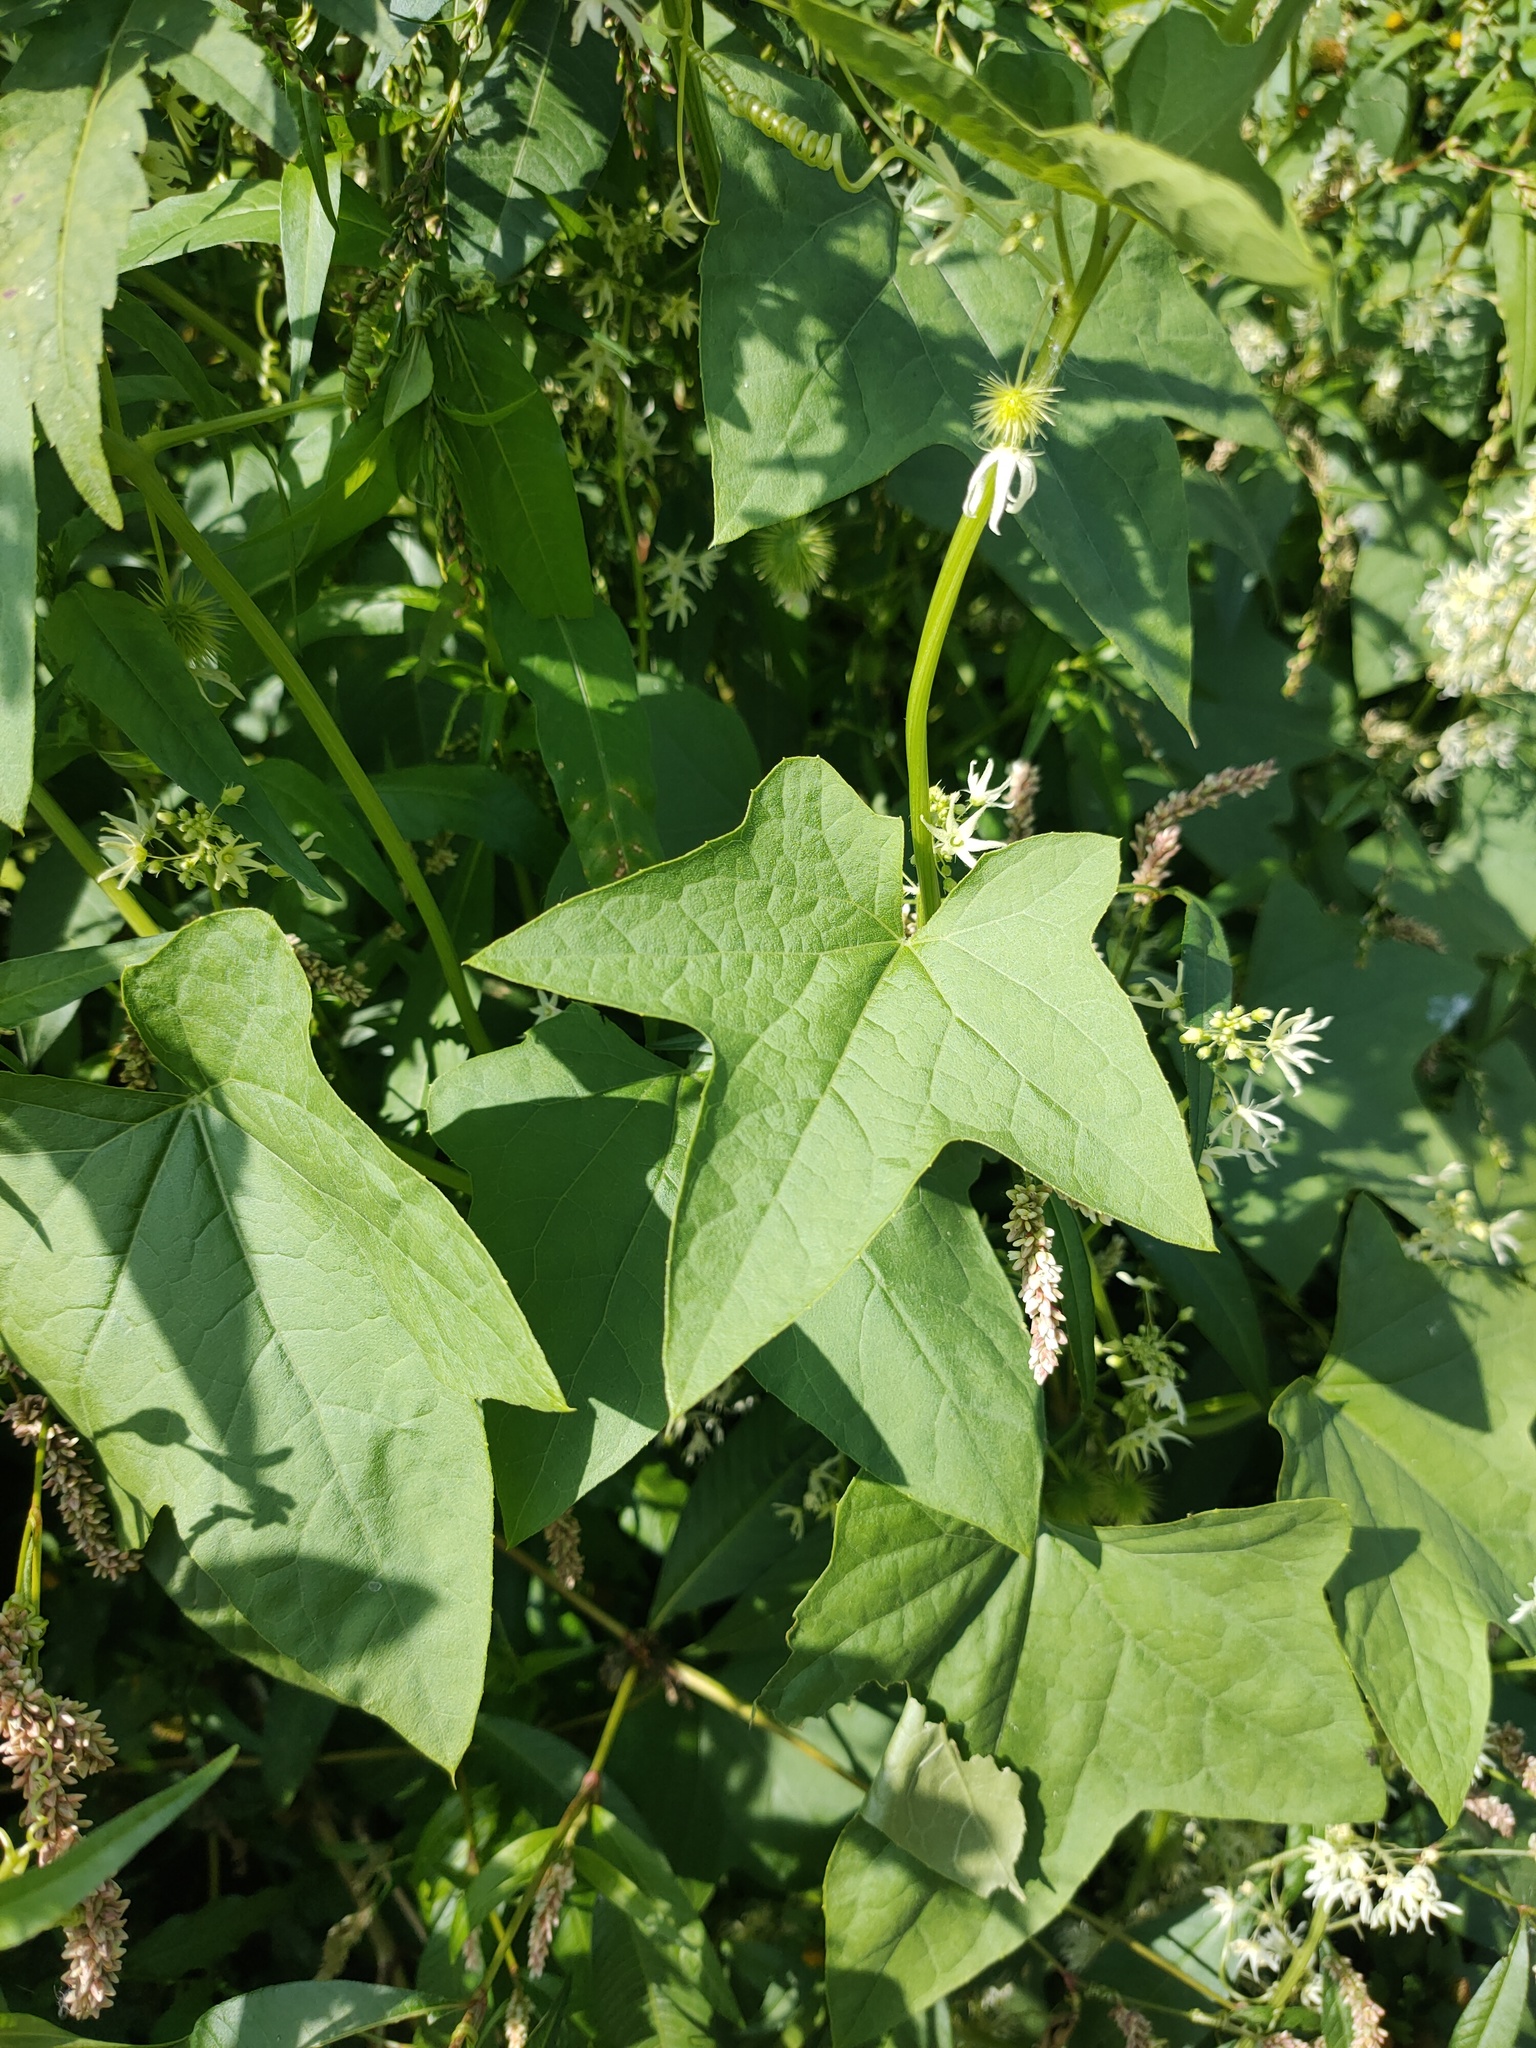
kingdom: Plantae
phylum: Tracheophyta
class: Magnoliopsida
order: Cucurbitales
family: Cucurbitaceae
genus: Echinocystis
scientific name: Echinocystis lobata
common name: Wild cucumber
